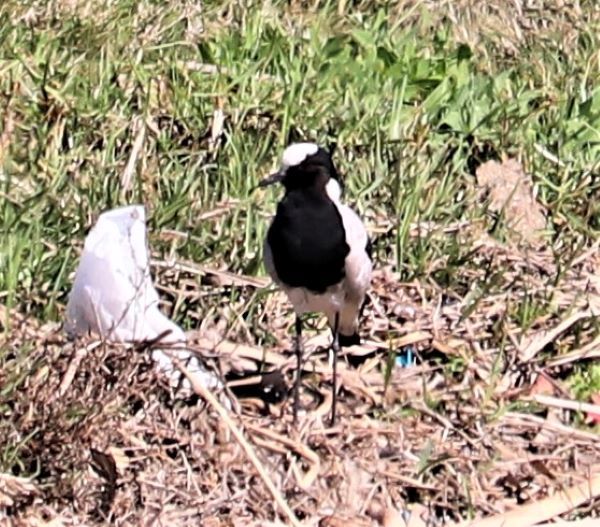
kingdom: Animalia
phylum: Chordata
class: Aves
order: Charadriiformes
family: Charadriidae
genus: Vanellus
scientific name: Vanellus armatus
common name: Blacksmith lapwing
